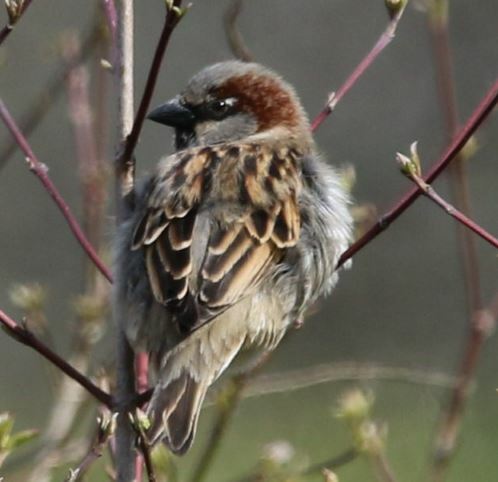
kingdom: Animalia
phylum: Chordata
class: Aves
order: Passeriformes
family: Passeridae
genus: Passer
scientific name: Passer domesticus
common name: House sparrow
